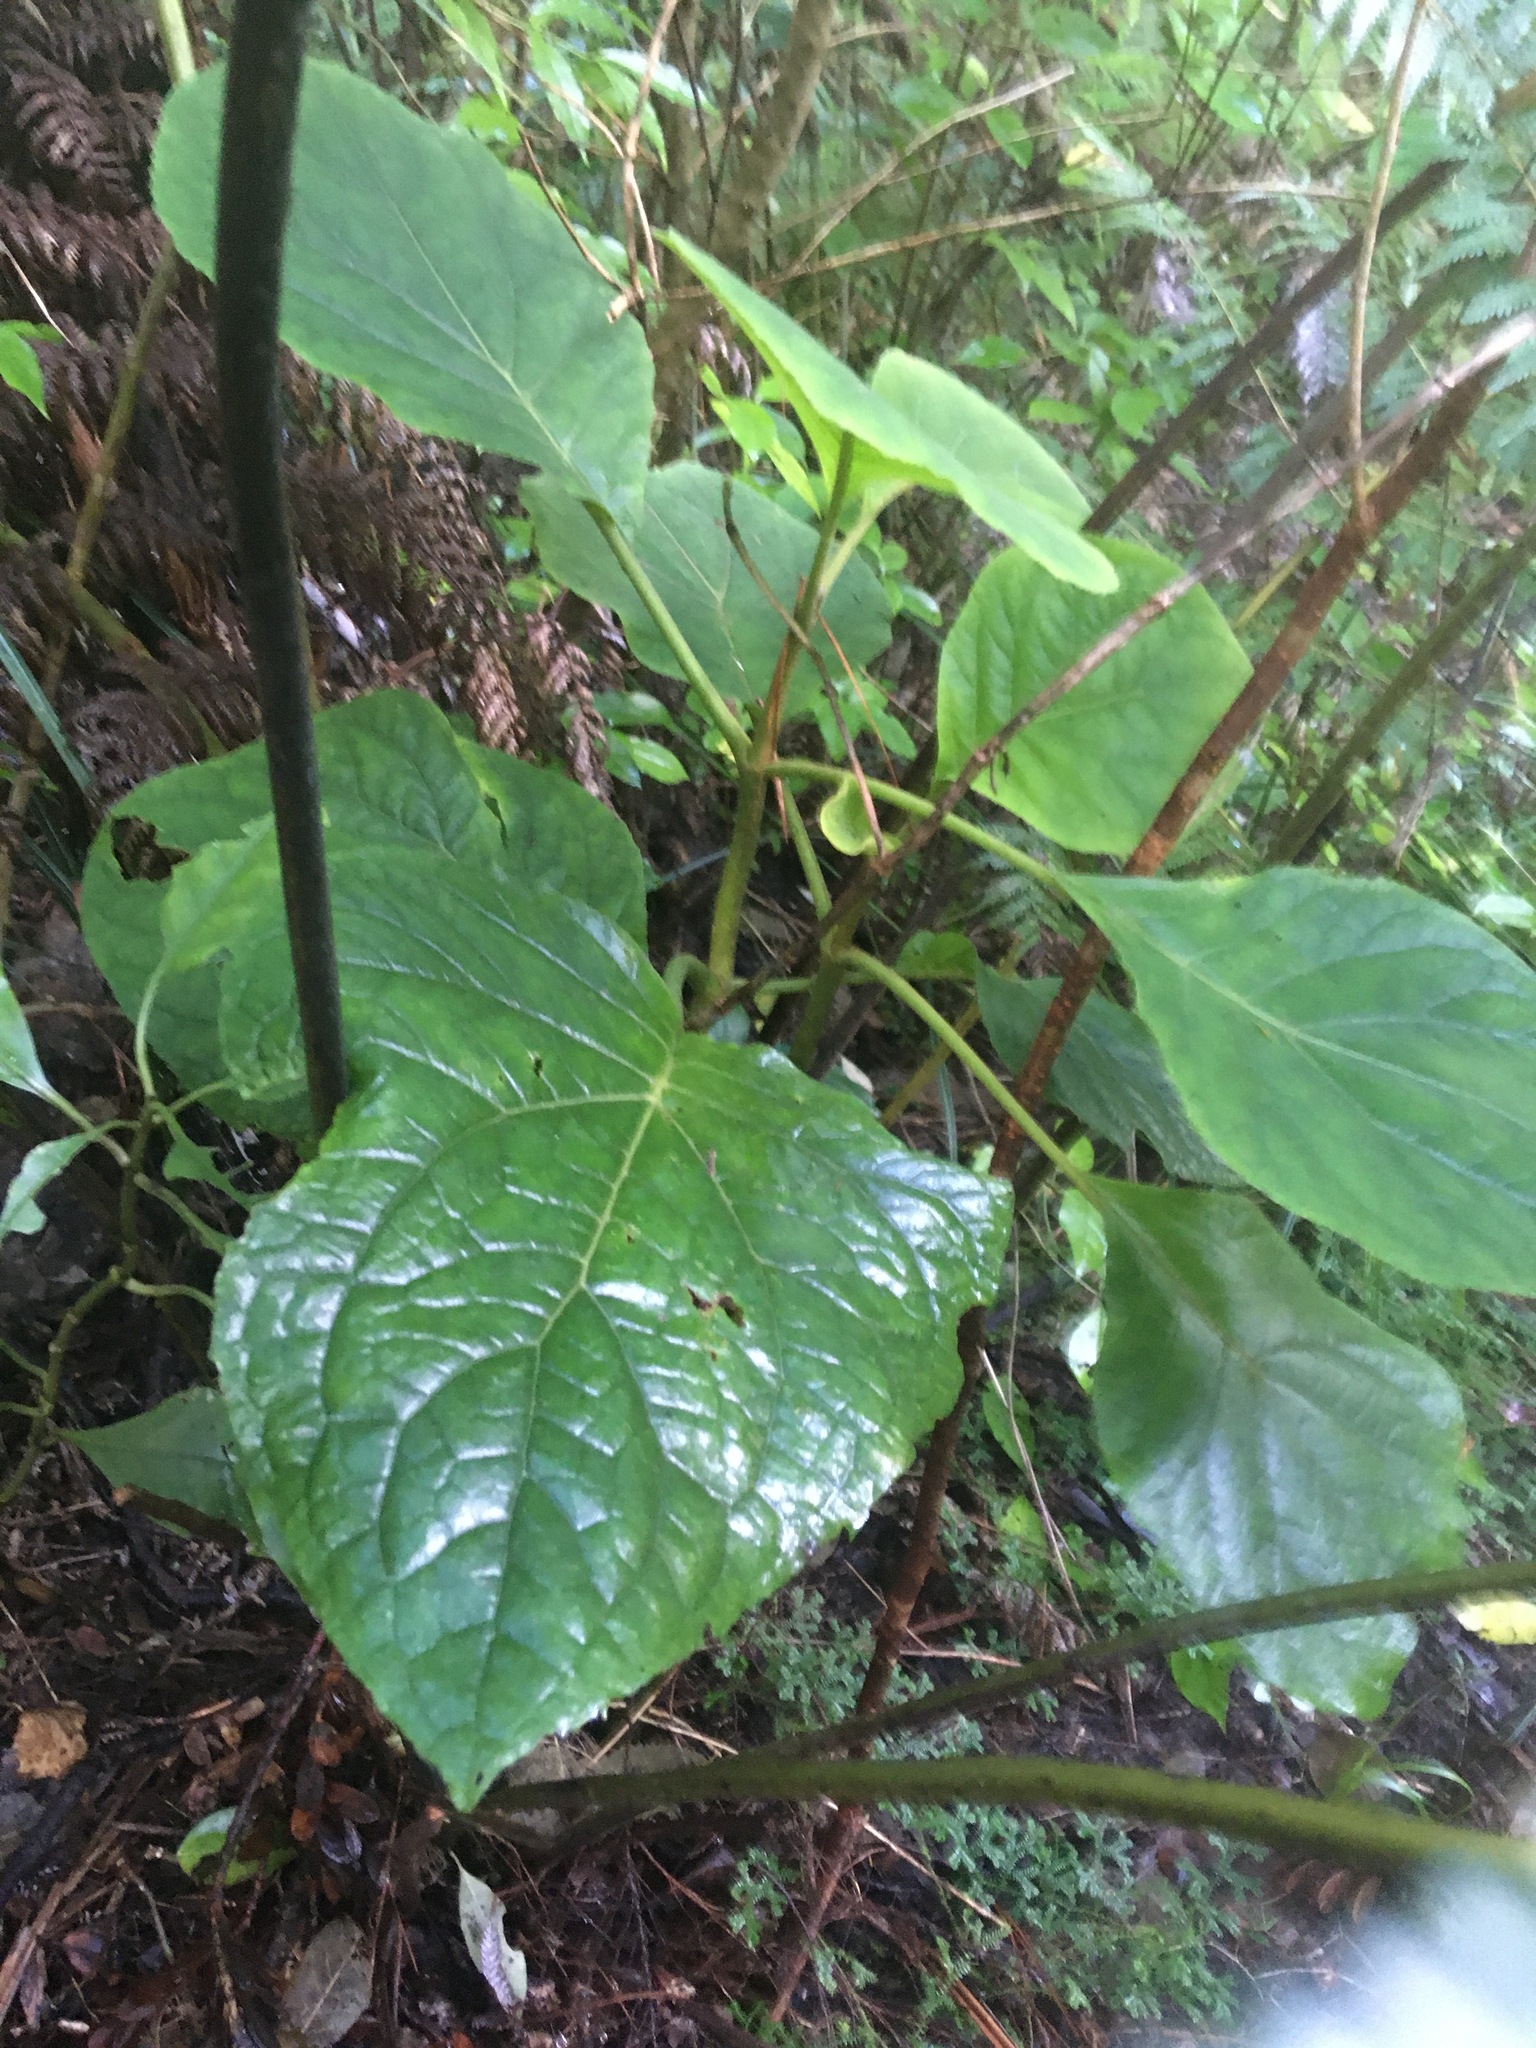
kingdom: Plantae
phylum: Tracheophyta
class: Magnoliopsida
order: Asterales
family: Asteraceae
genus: Bartlettina
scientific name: Bartlettina sordida
